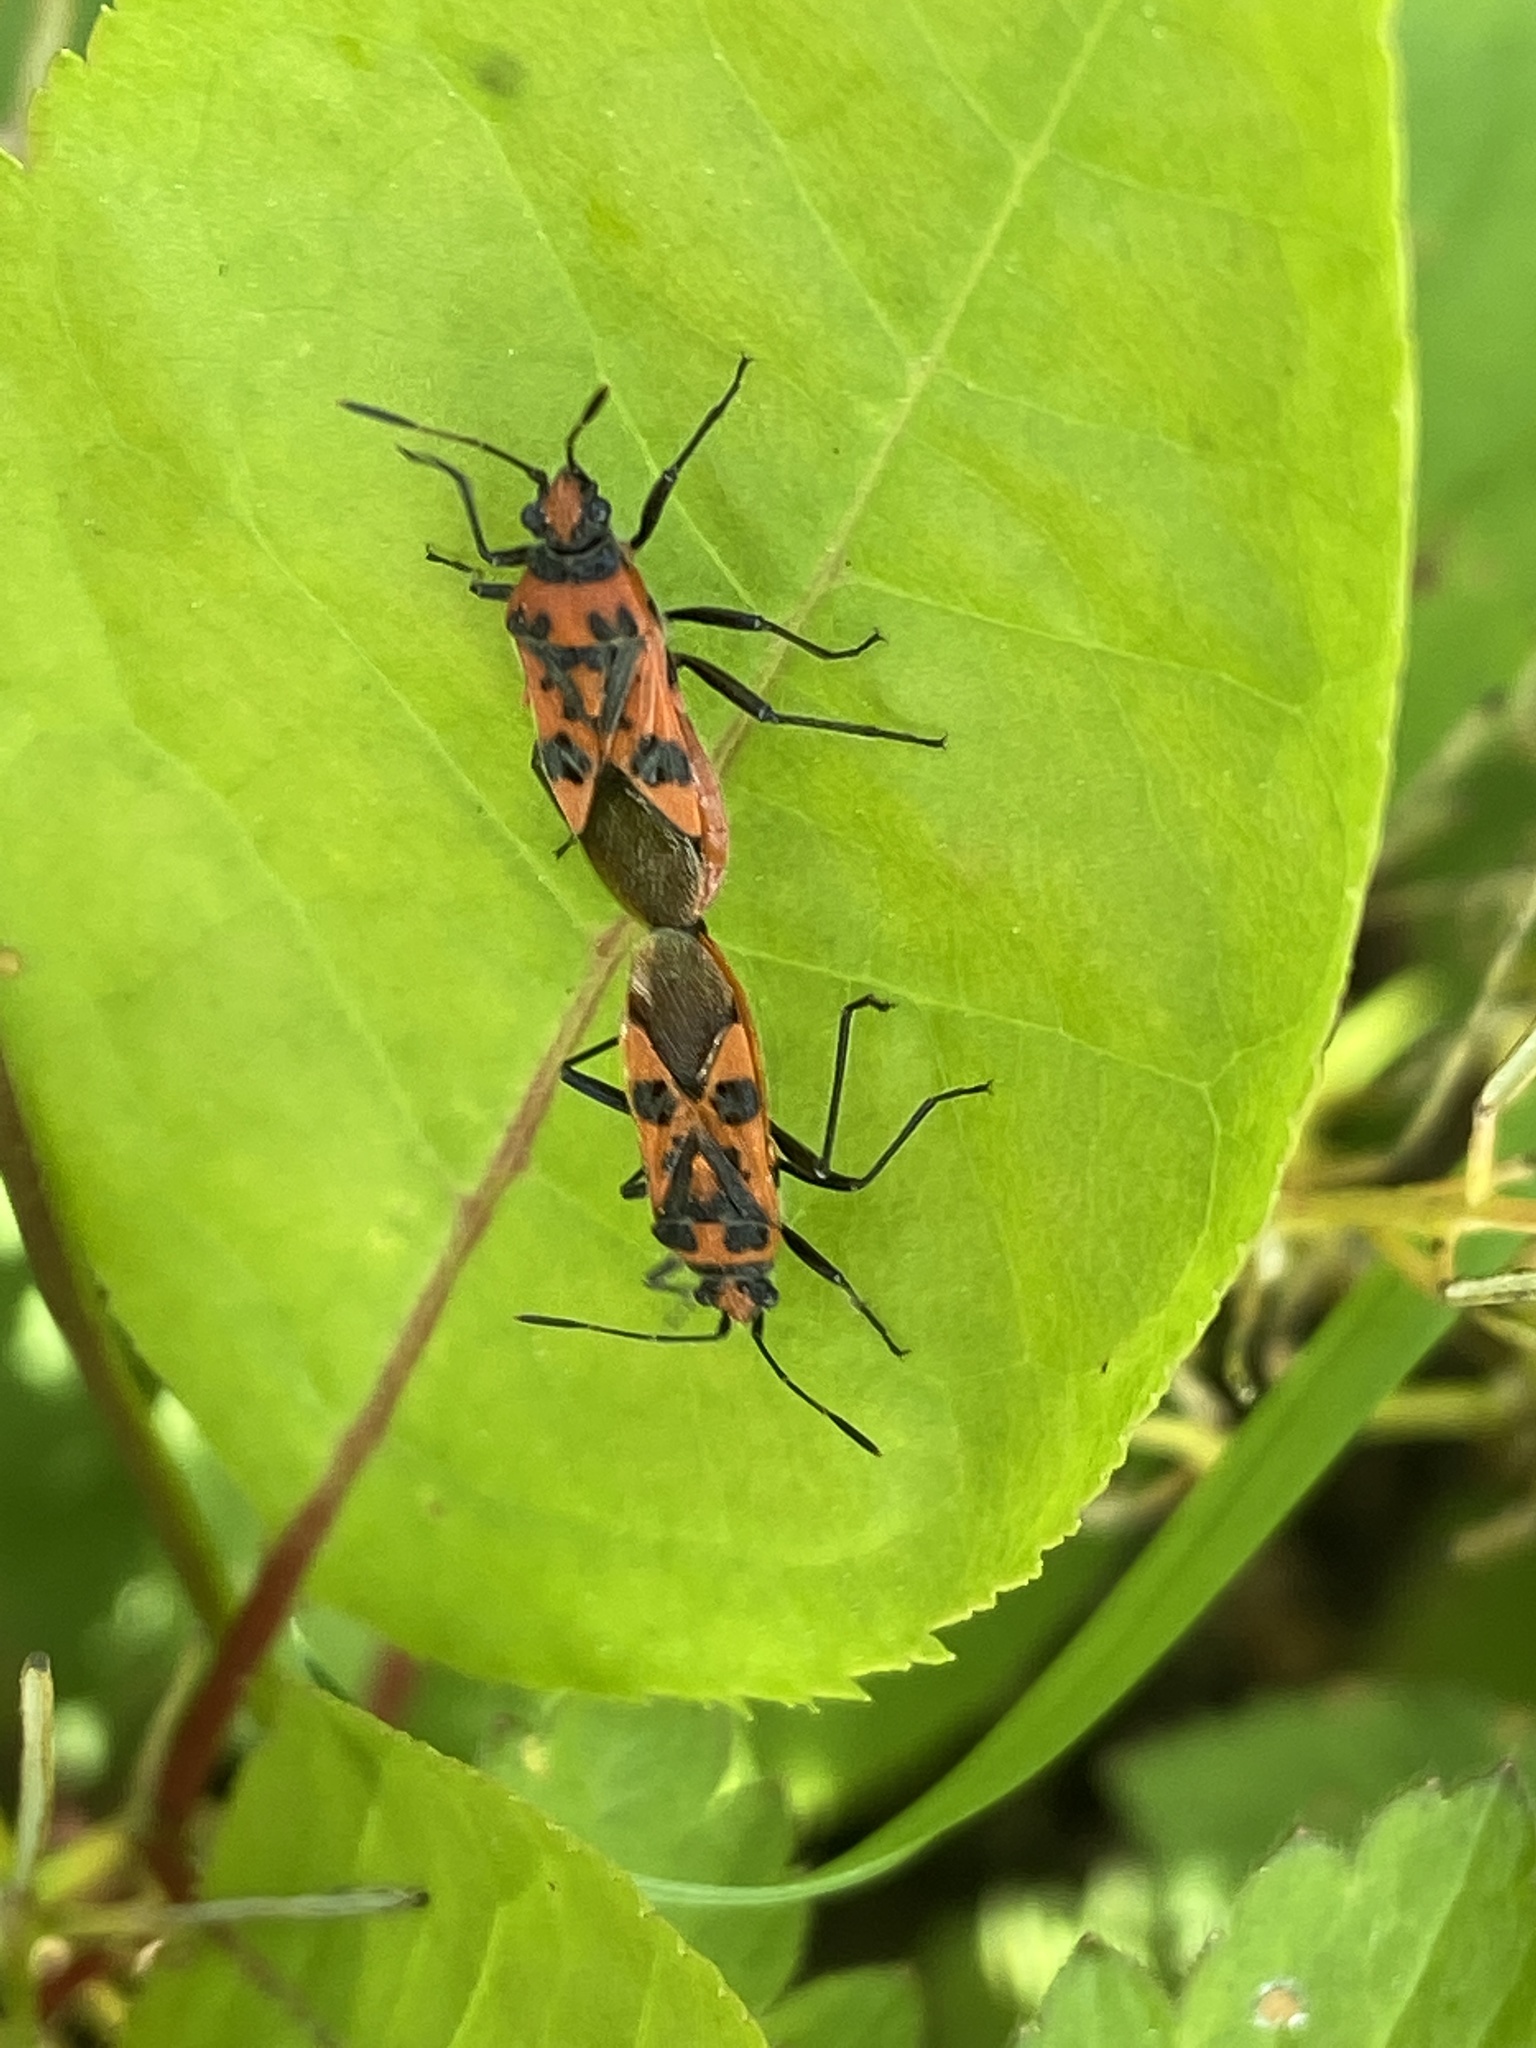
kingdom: Animalia
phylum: Arthropoda
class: Insecta
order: Hemiptera
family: Rhopalidae
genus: Corizus
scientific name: Corizus hyoscyami
